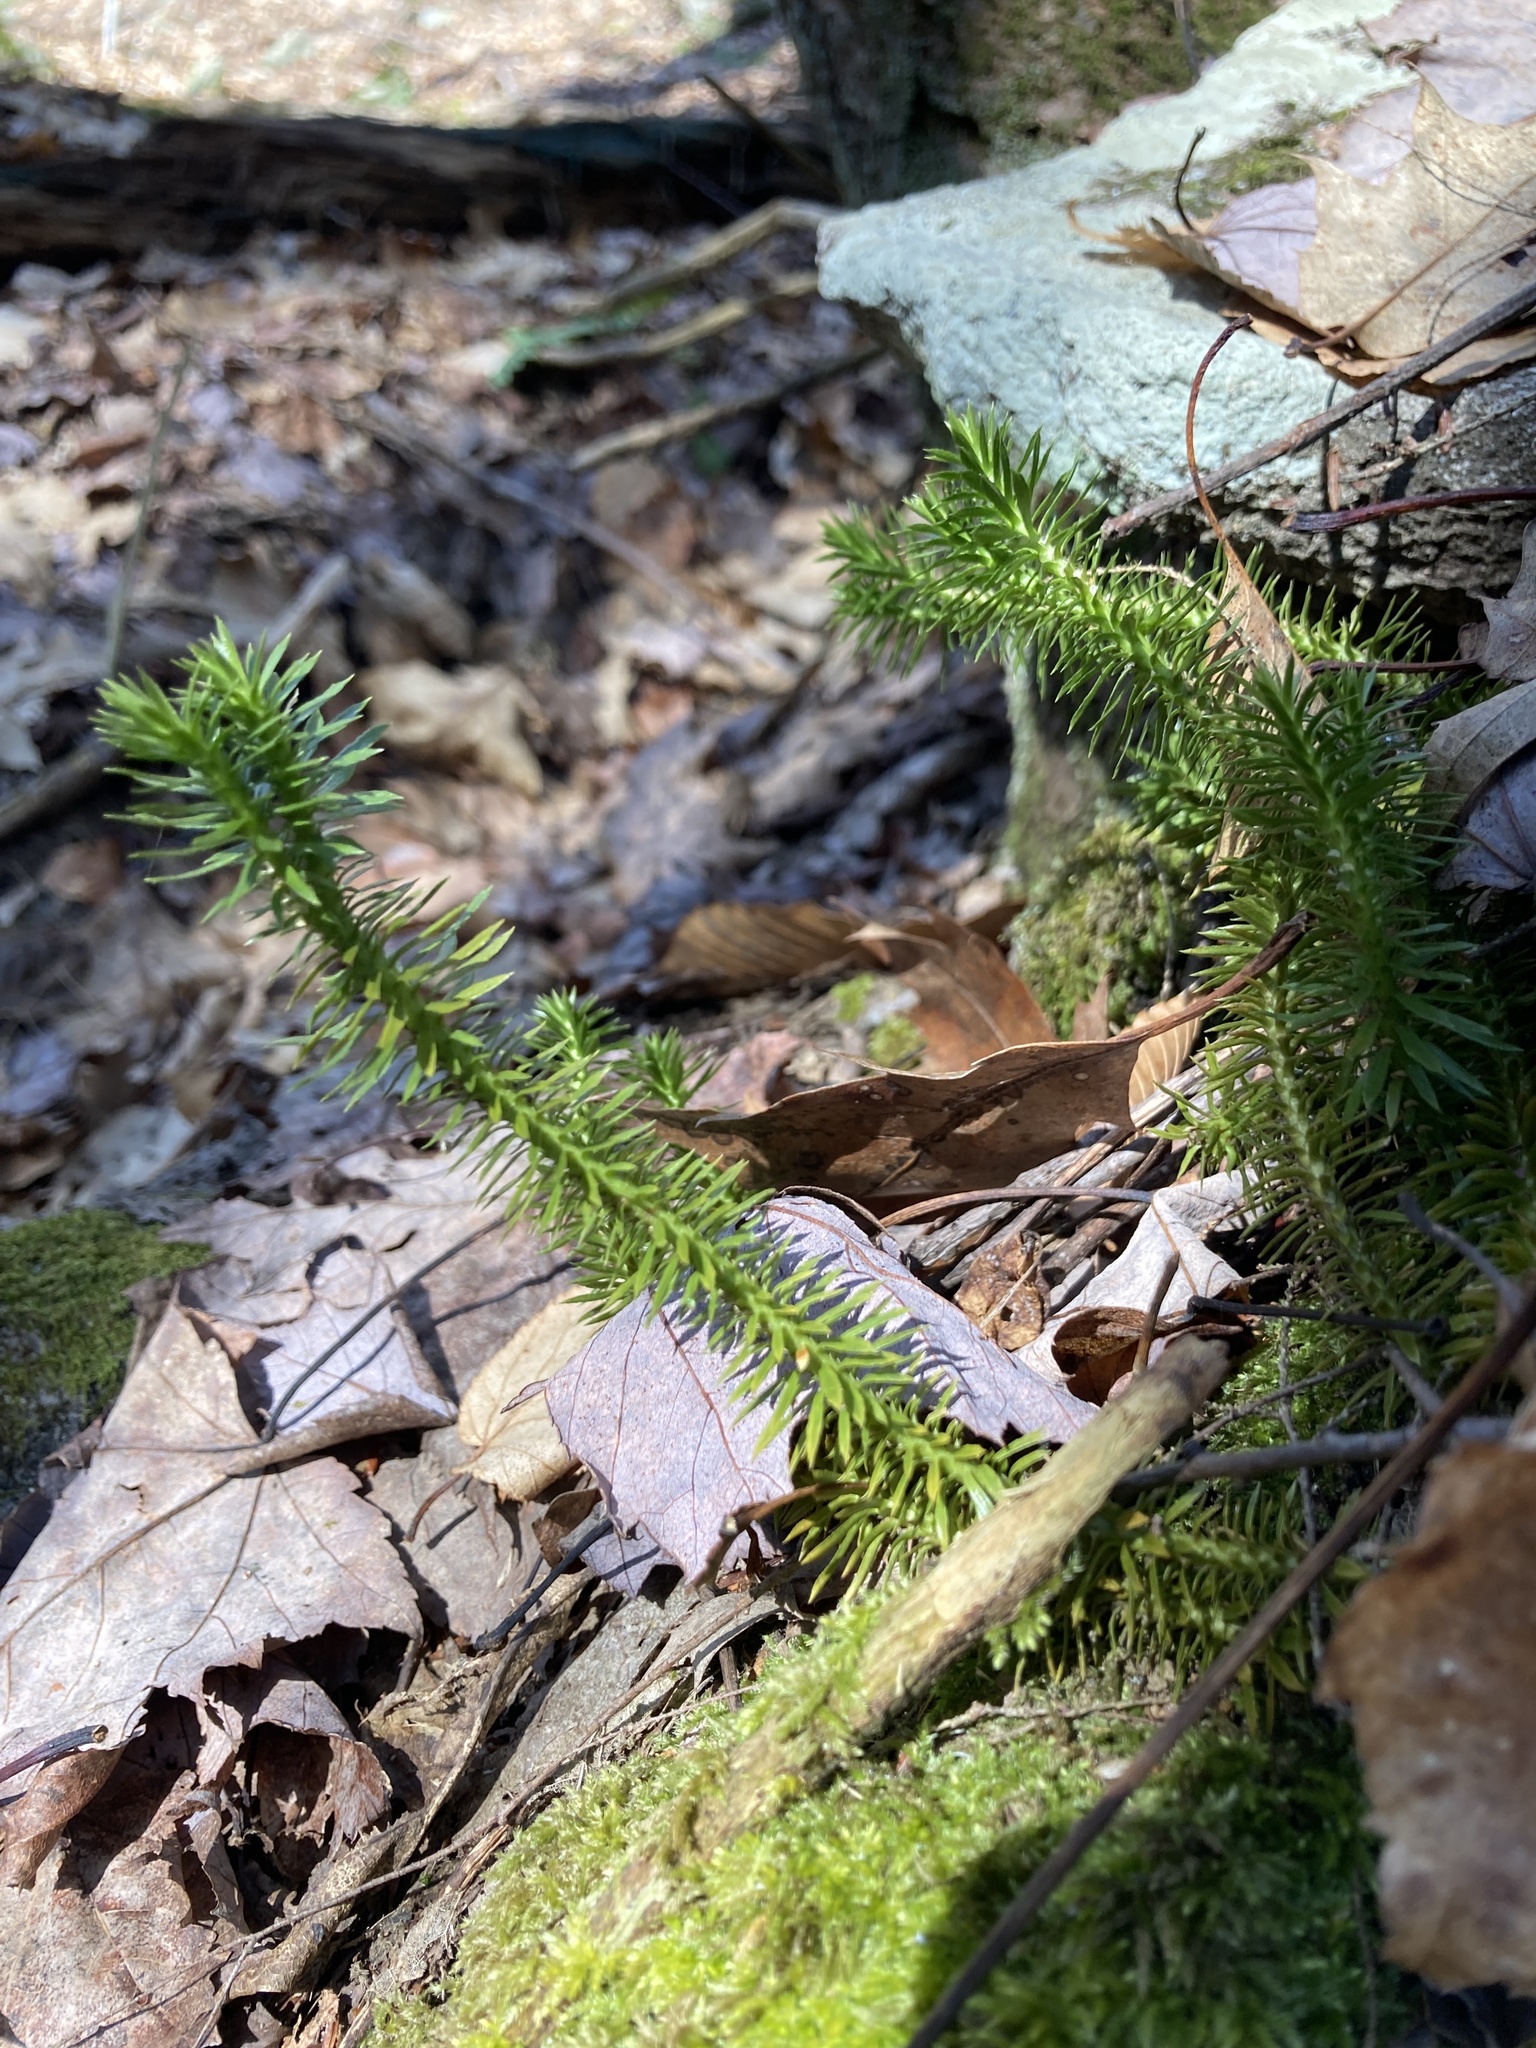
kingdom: Plantae
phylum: Tracheophyta
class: Lycopodiopsida
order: Lycopodiales
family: Lycopodiaceae
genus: Huperzia
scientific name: Huperzia lucidula
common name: Shining clubmoss
